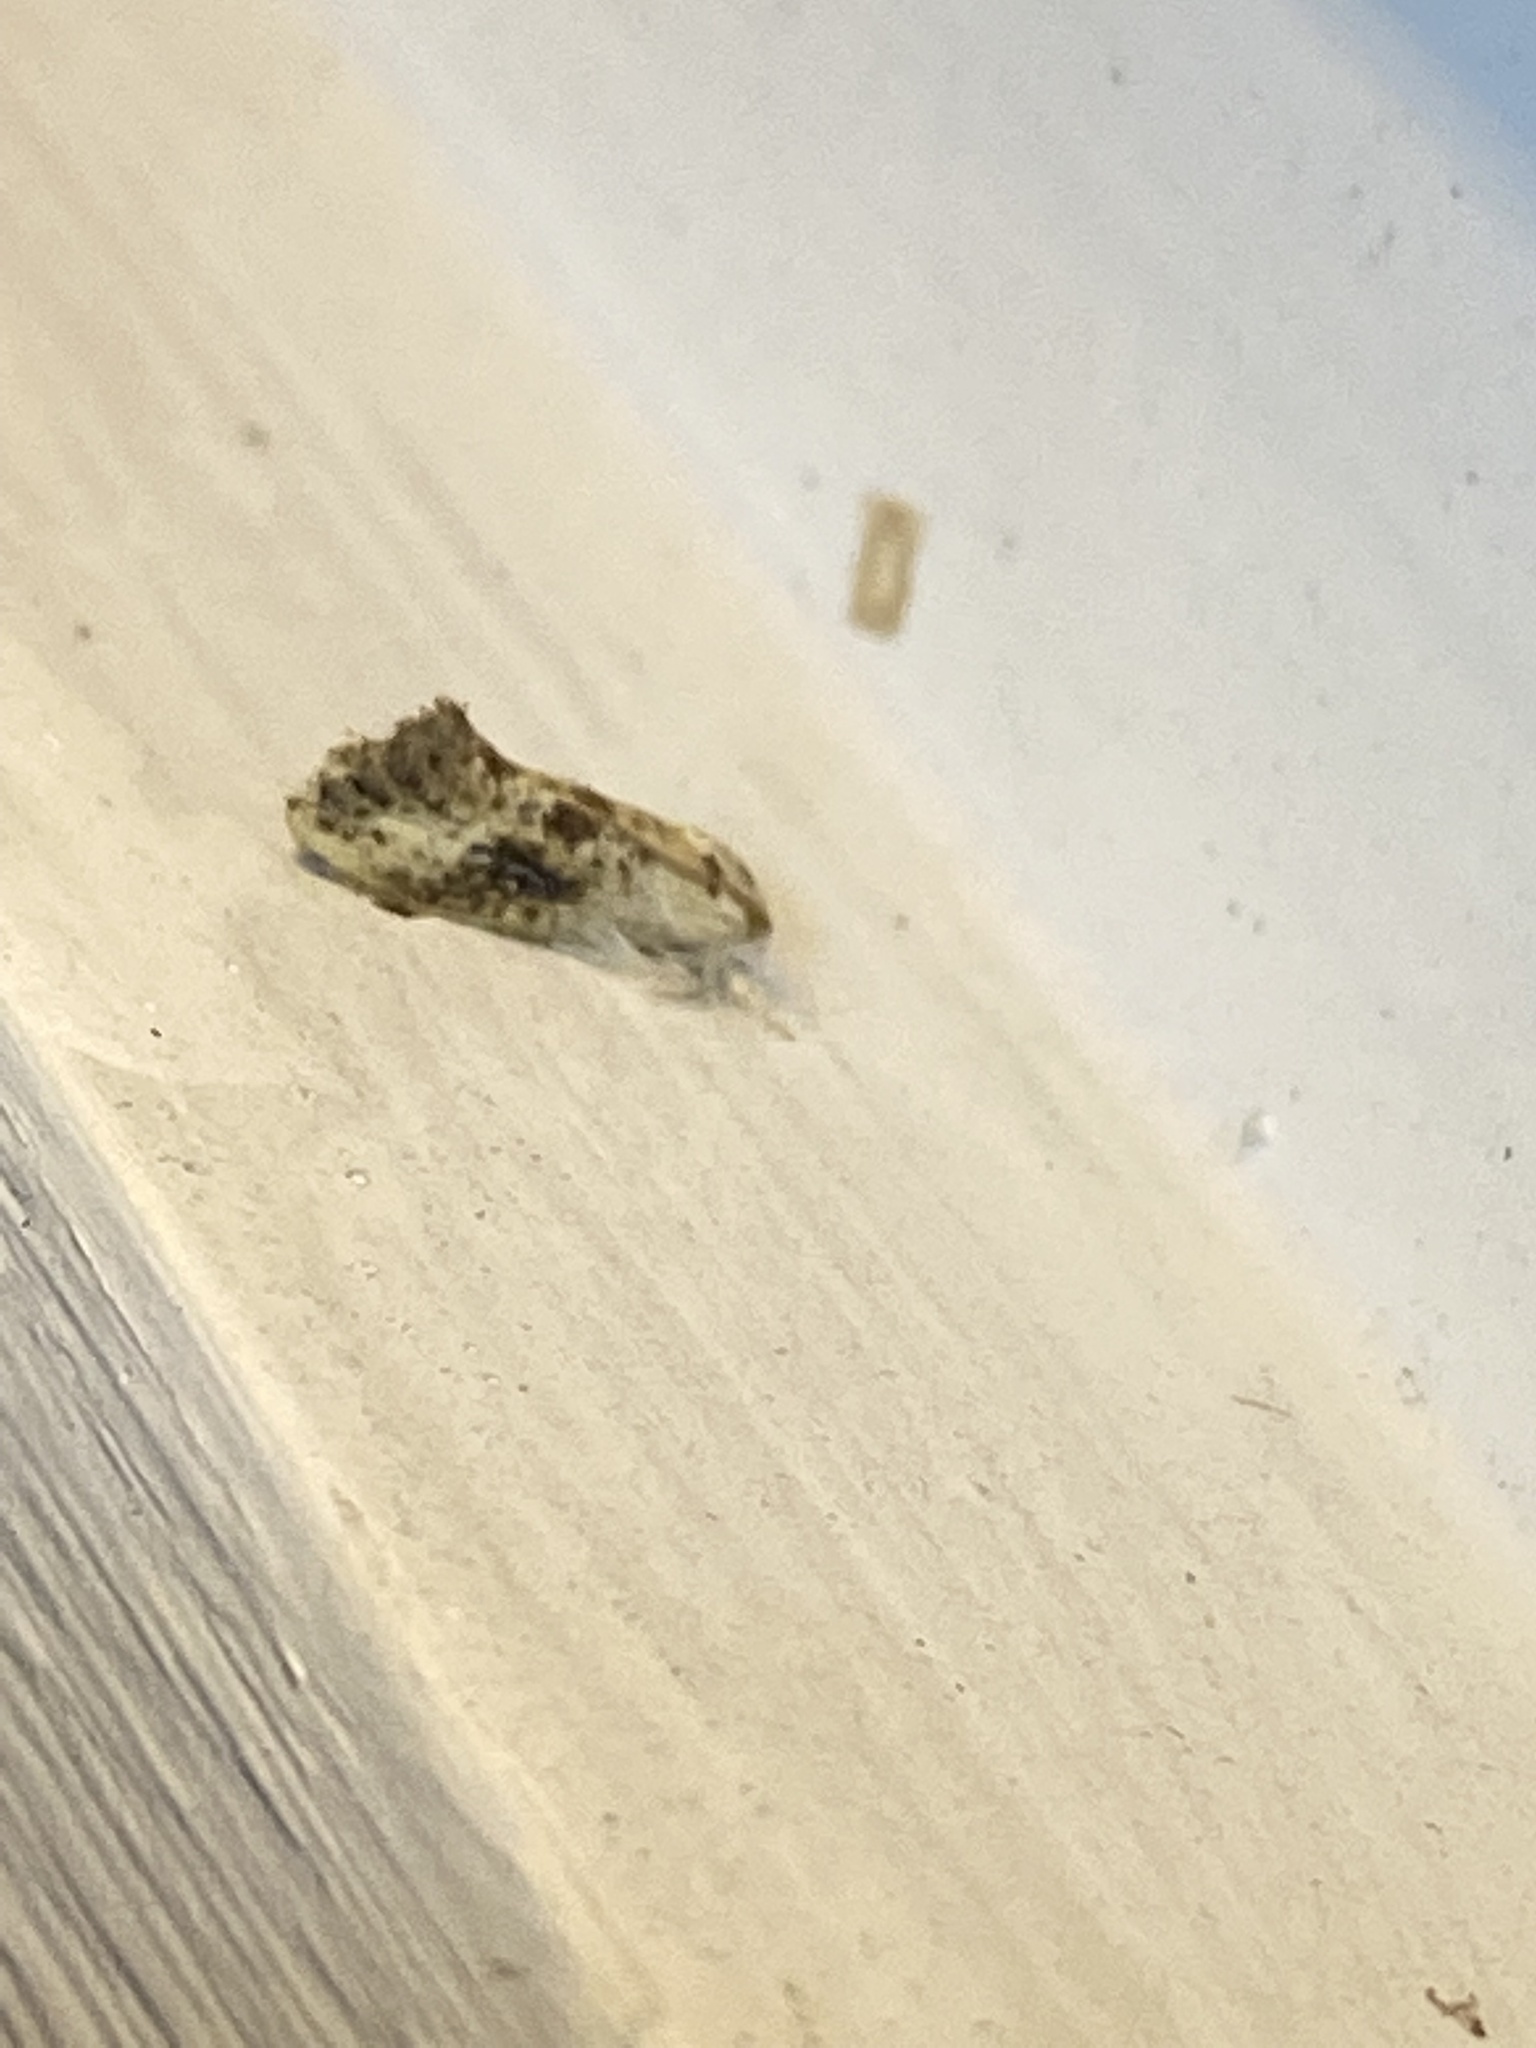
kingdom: Animalia
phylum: Arthropoda
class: Insecta
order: Lepidoptera
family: Tineidae
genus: Acrolophus
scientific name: Acrolophus mycetophagus
